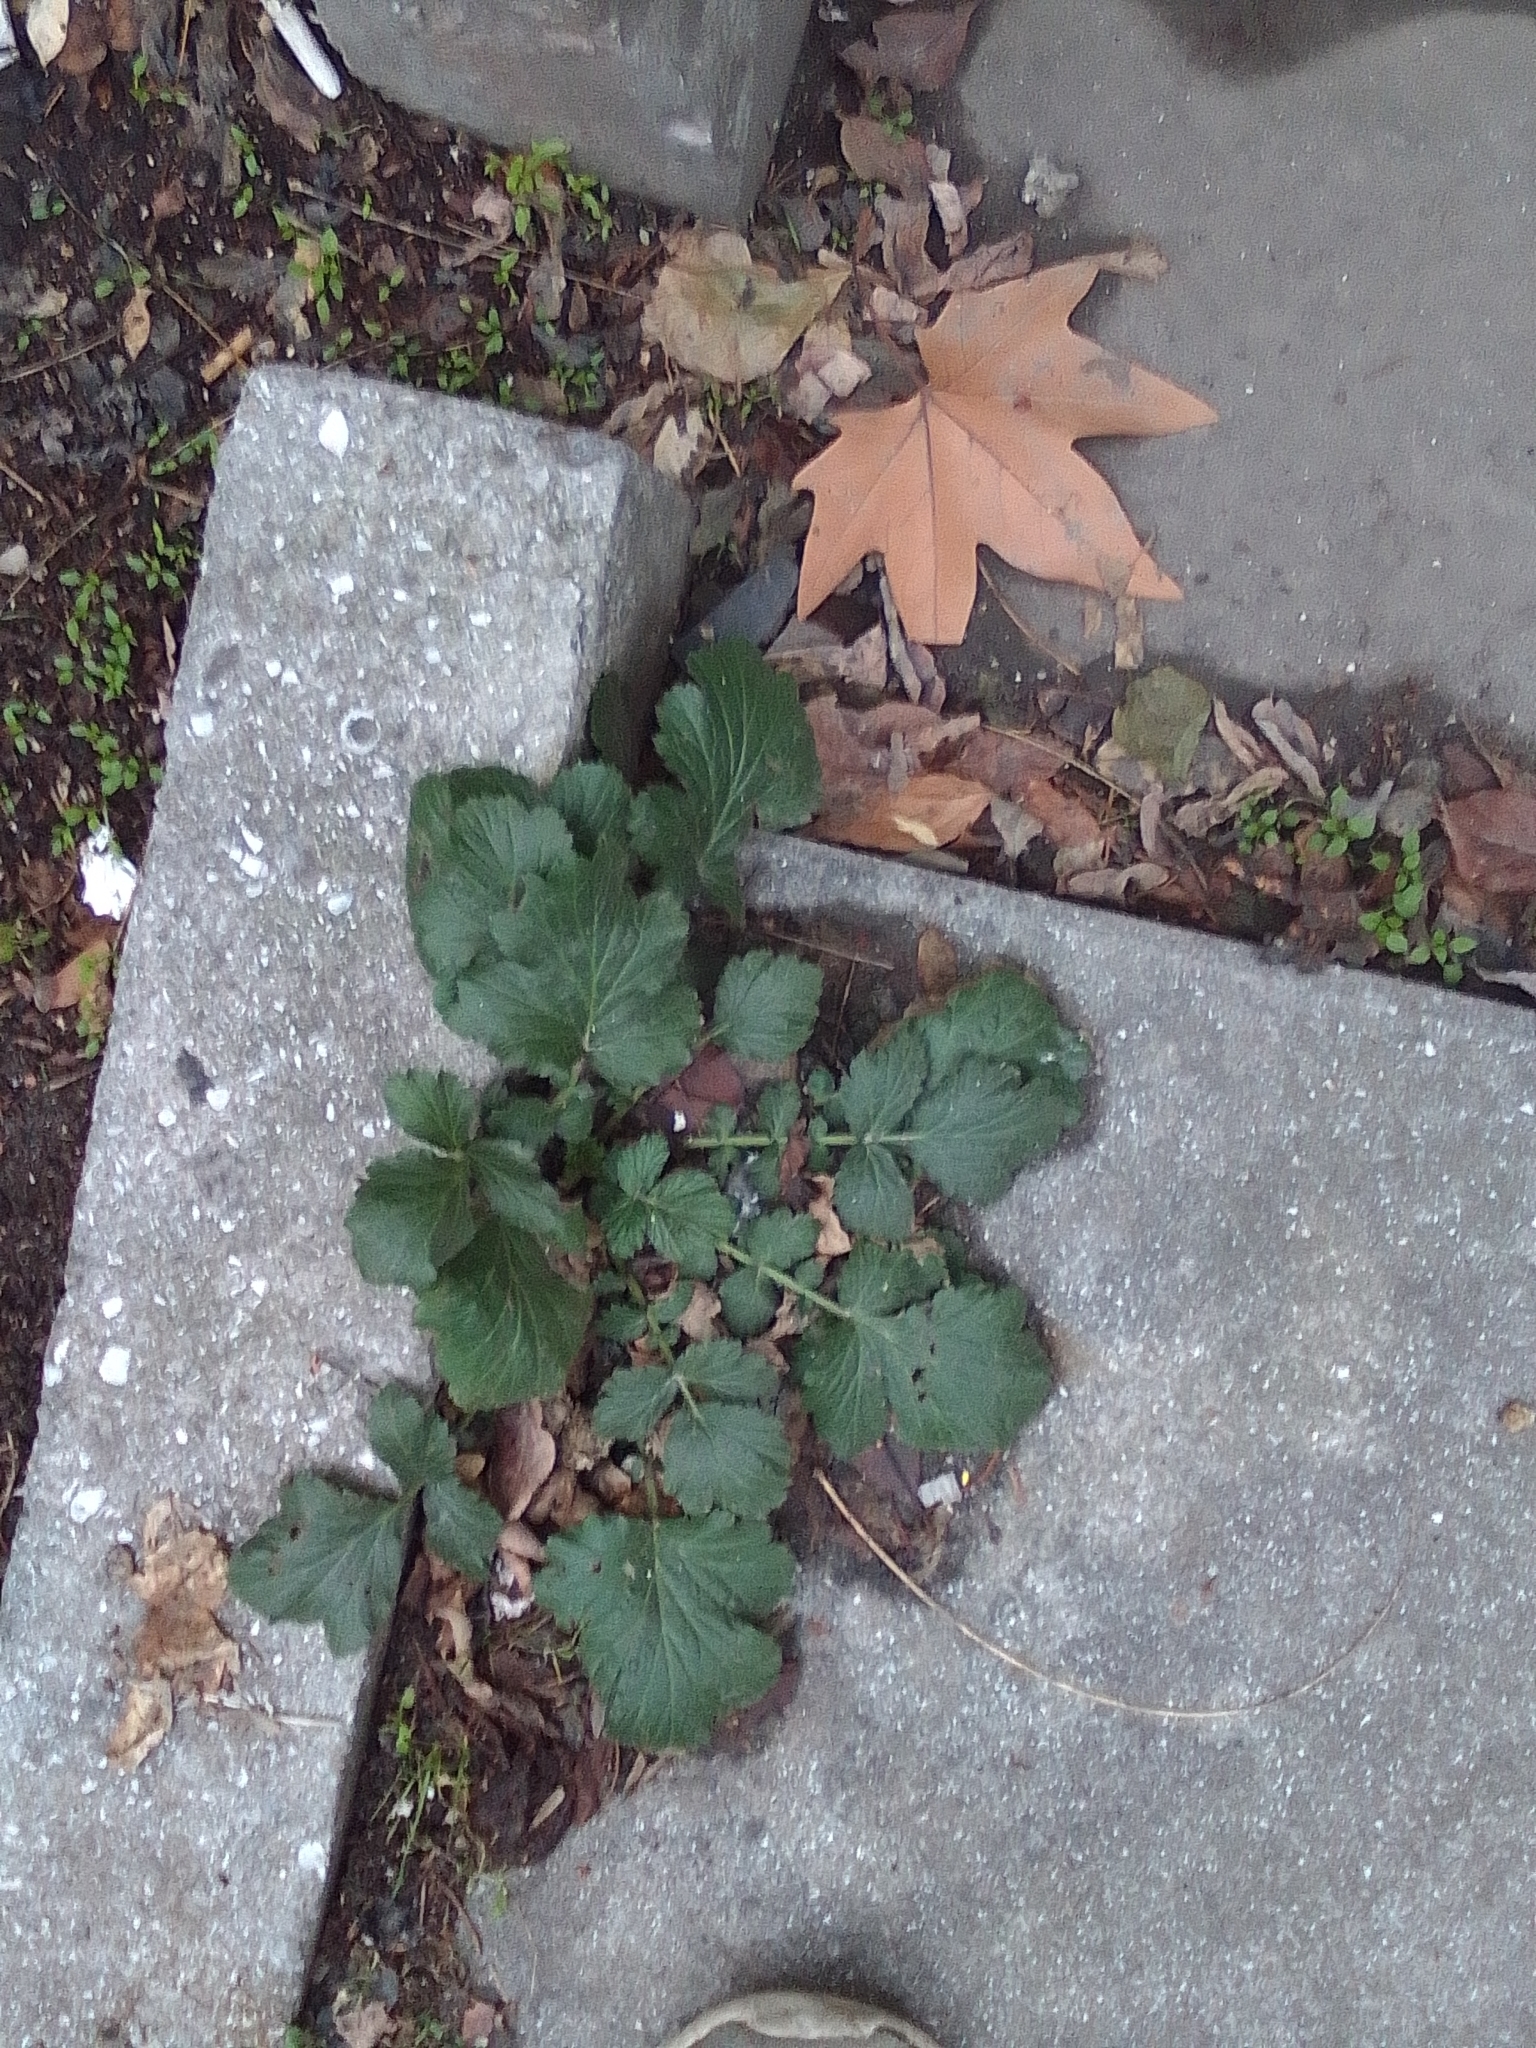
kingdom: Plantae
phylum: Tracheophyta
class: Magnoliopsida
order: Rosales
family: Rosaceae
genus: Geum
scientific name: Geum urbanum
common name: Wood avens
